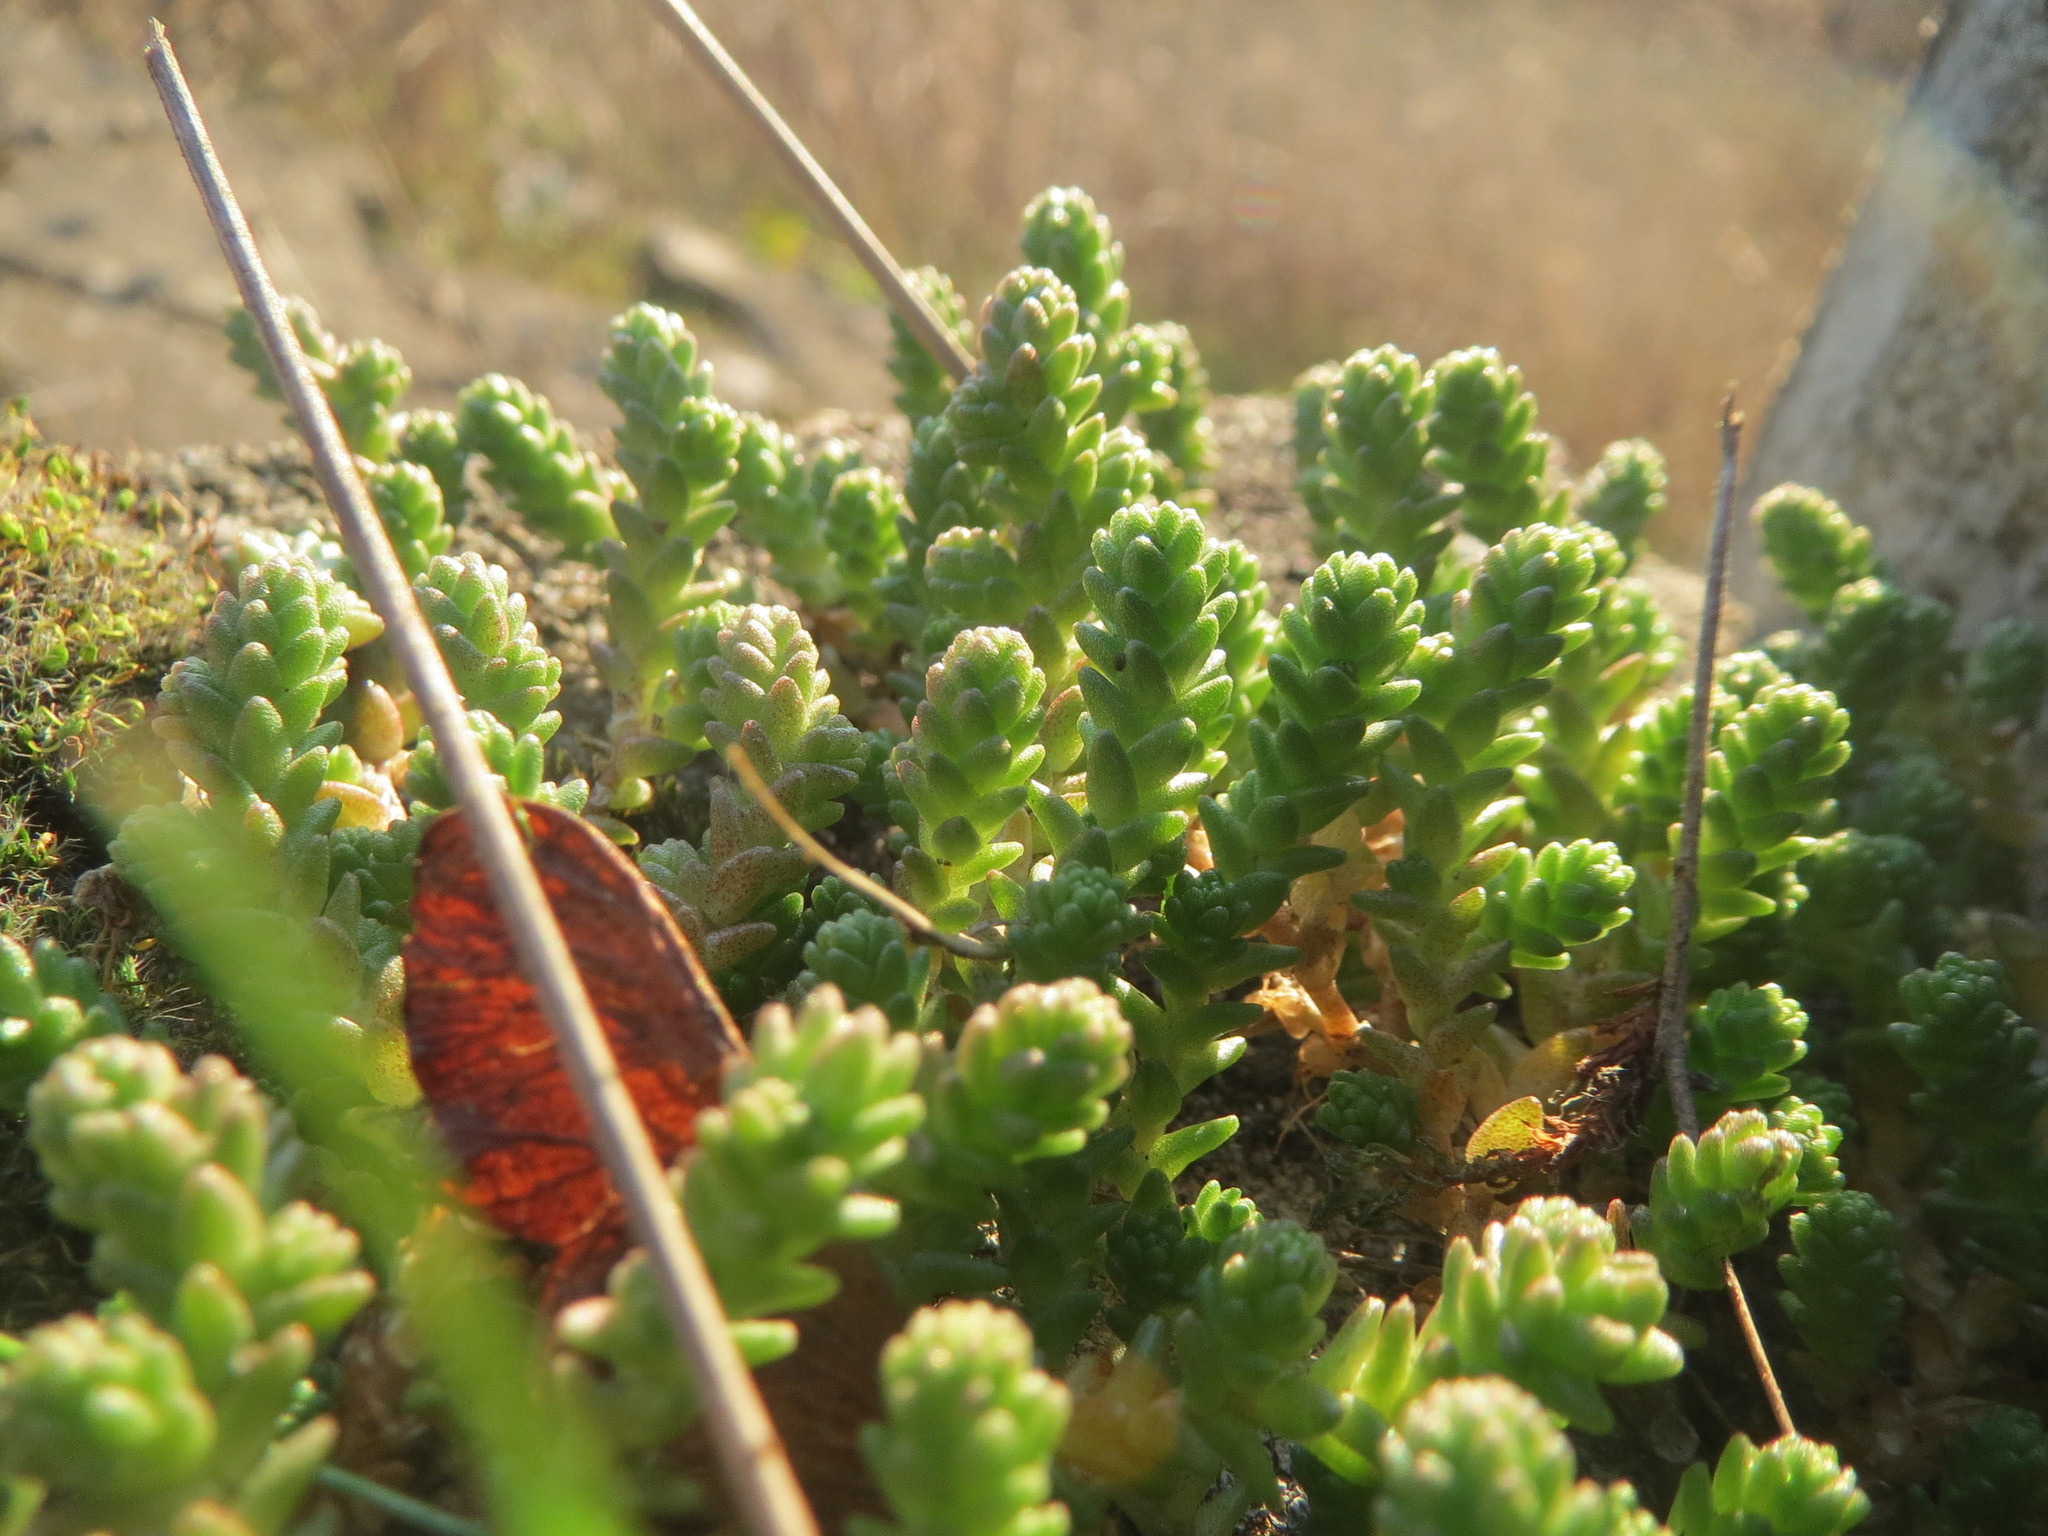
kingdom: Plantae
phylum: Tracheophyta
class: Magnoliopsida
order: Saxifragales
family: Crassulaceae
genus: Sedum
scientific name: Sedum acre
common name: Biting stonecrop
